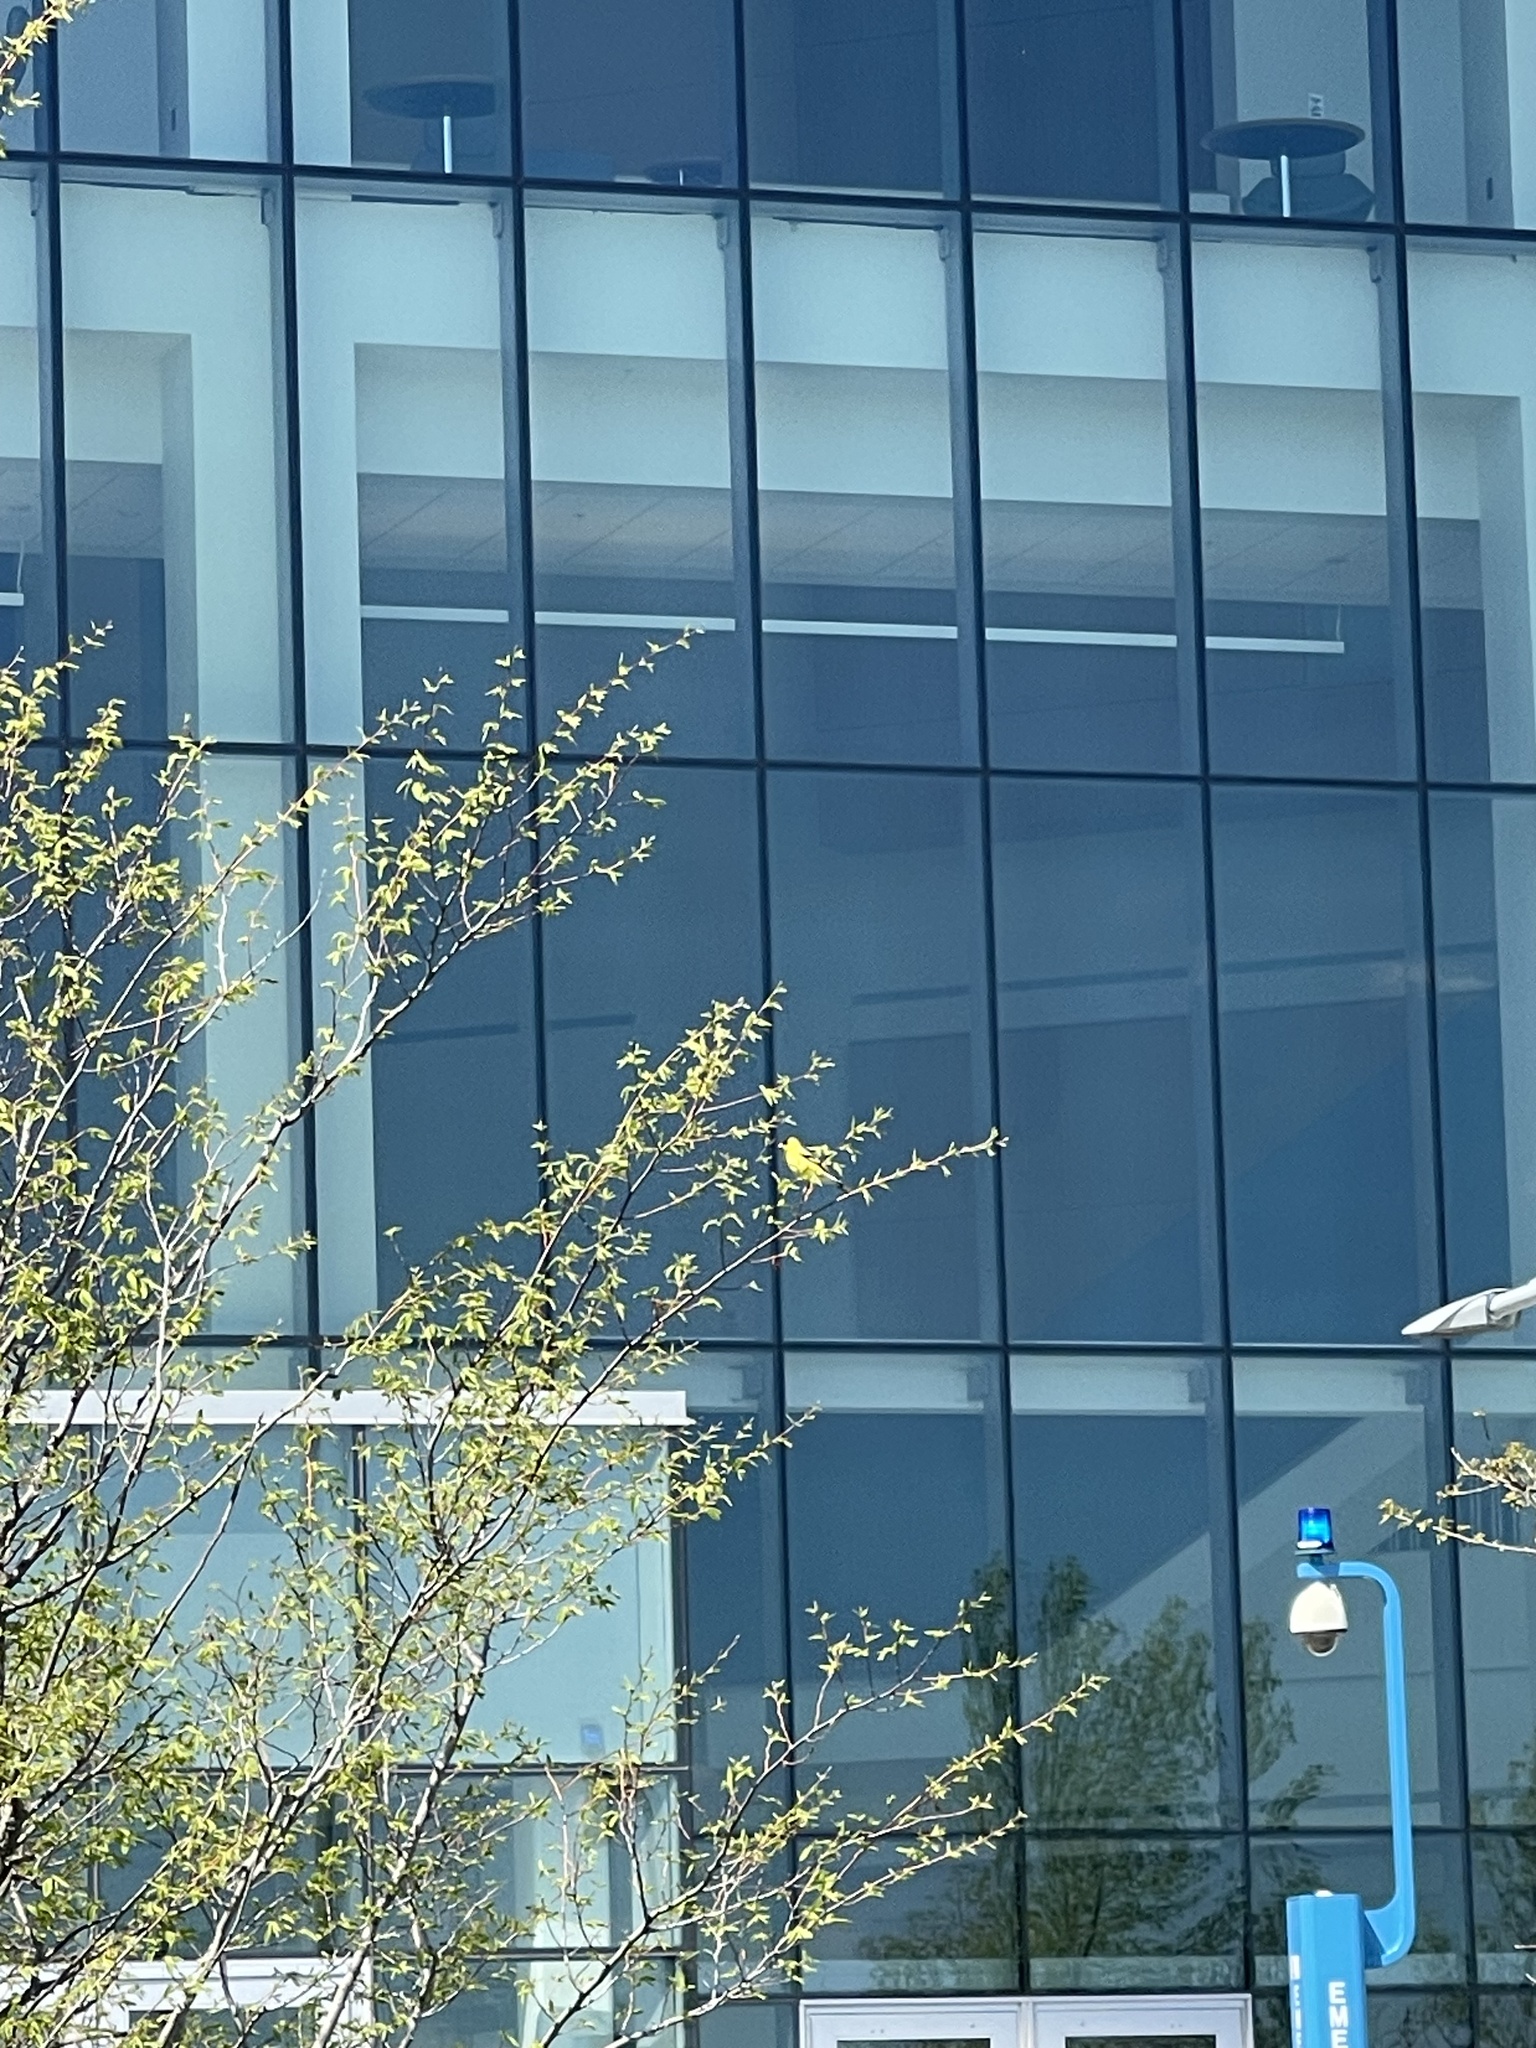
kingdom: Animalia
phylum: Chordata
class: Aves
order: Passeriformes
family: Fringillidae
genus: Spinus
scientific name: Spinus tristis
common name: American goldfinch
